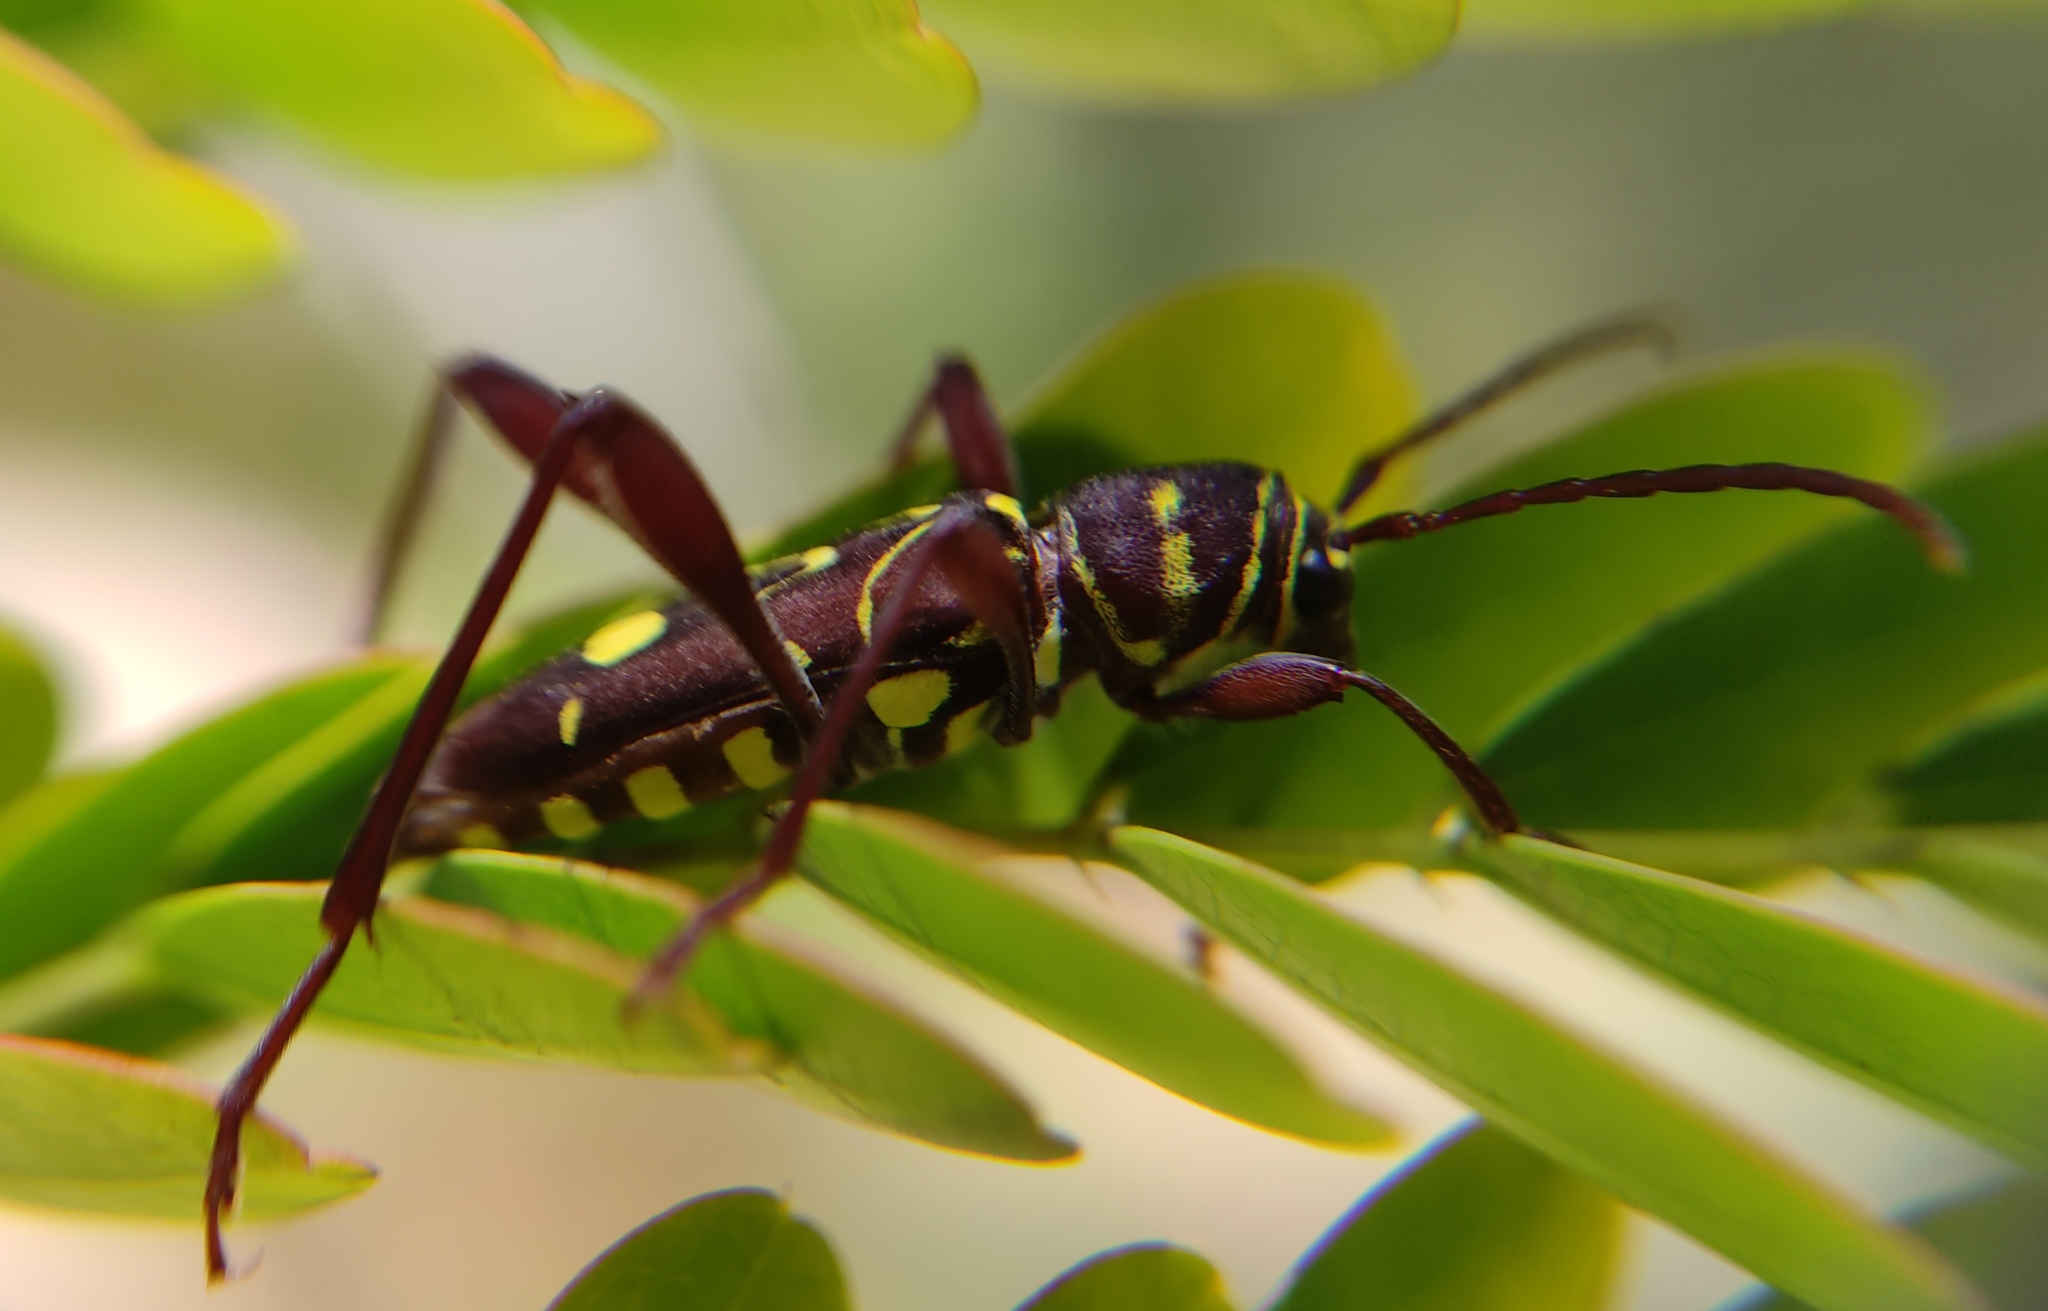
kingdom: Animalia
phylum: Arthropoda
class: Insecta
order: Coleoptera
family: Cerambycidae
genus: Cotyclytus
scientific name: Cotyclytus curvatus
